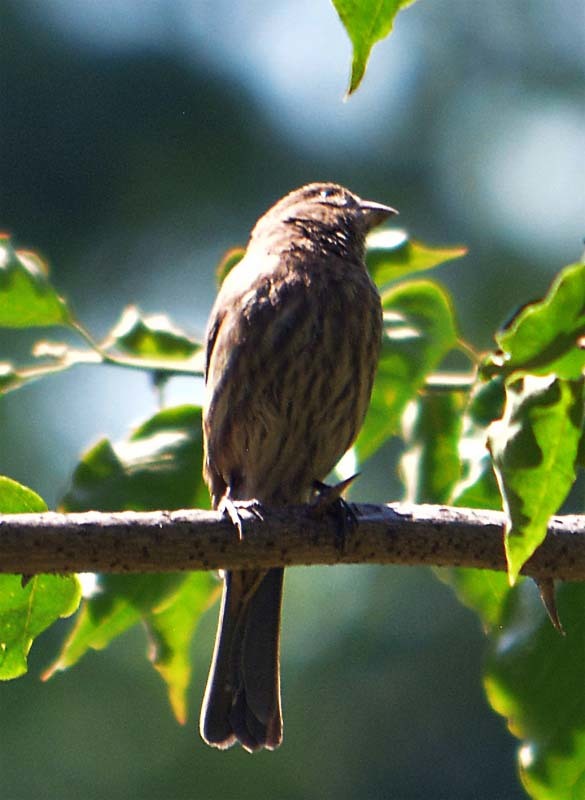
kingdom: Animalia
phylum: Chordata
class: Aves
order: Passeriformes
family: Fringillidae
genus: Haemorhous
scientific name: Haemorhous mexicanus
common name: House finch
